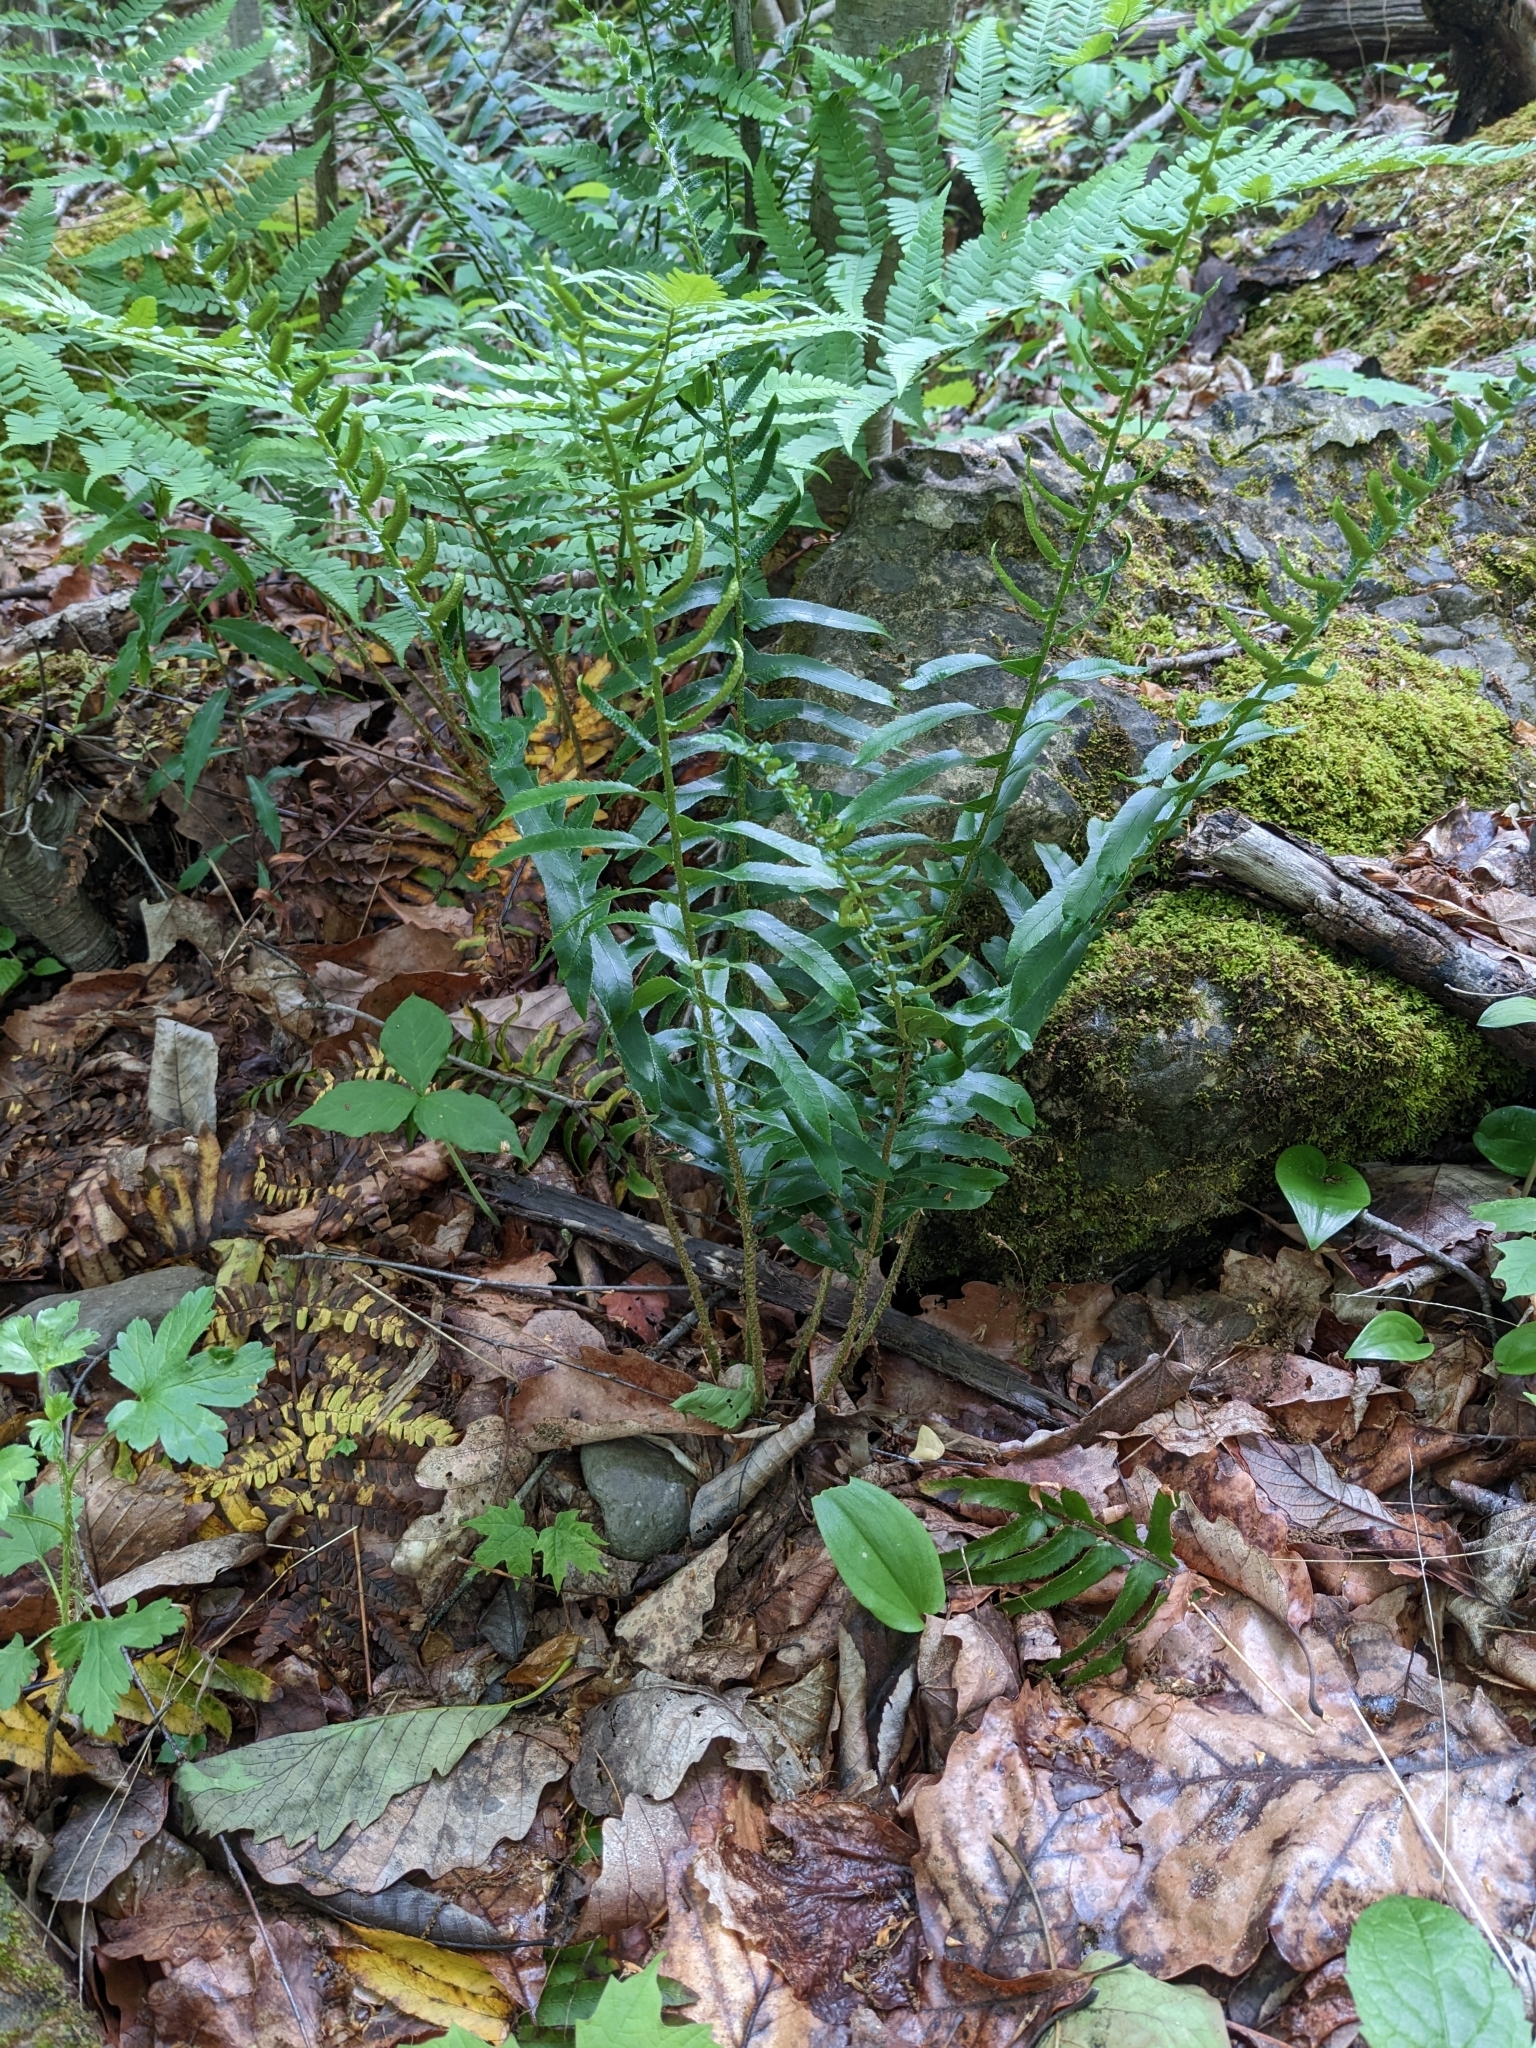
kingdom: Plantae
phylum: Tracheophyta
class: Polypodiopsida
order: Polypodiales
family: Dryopteridaceae
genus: Polystichum
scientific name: Polystichum acrostichoides
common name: Christmas fern
